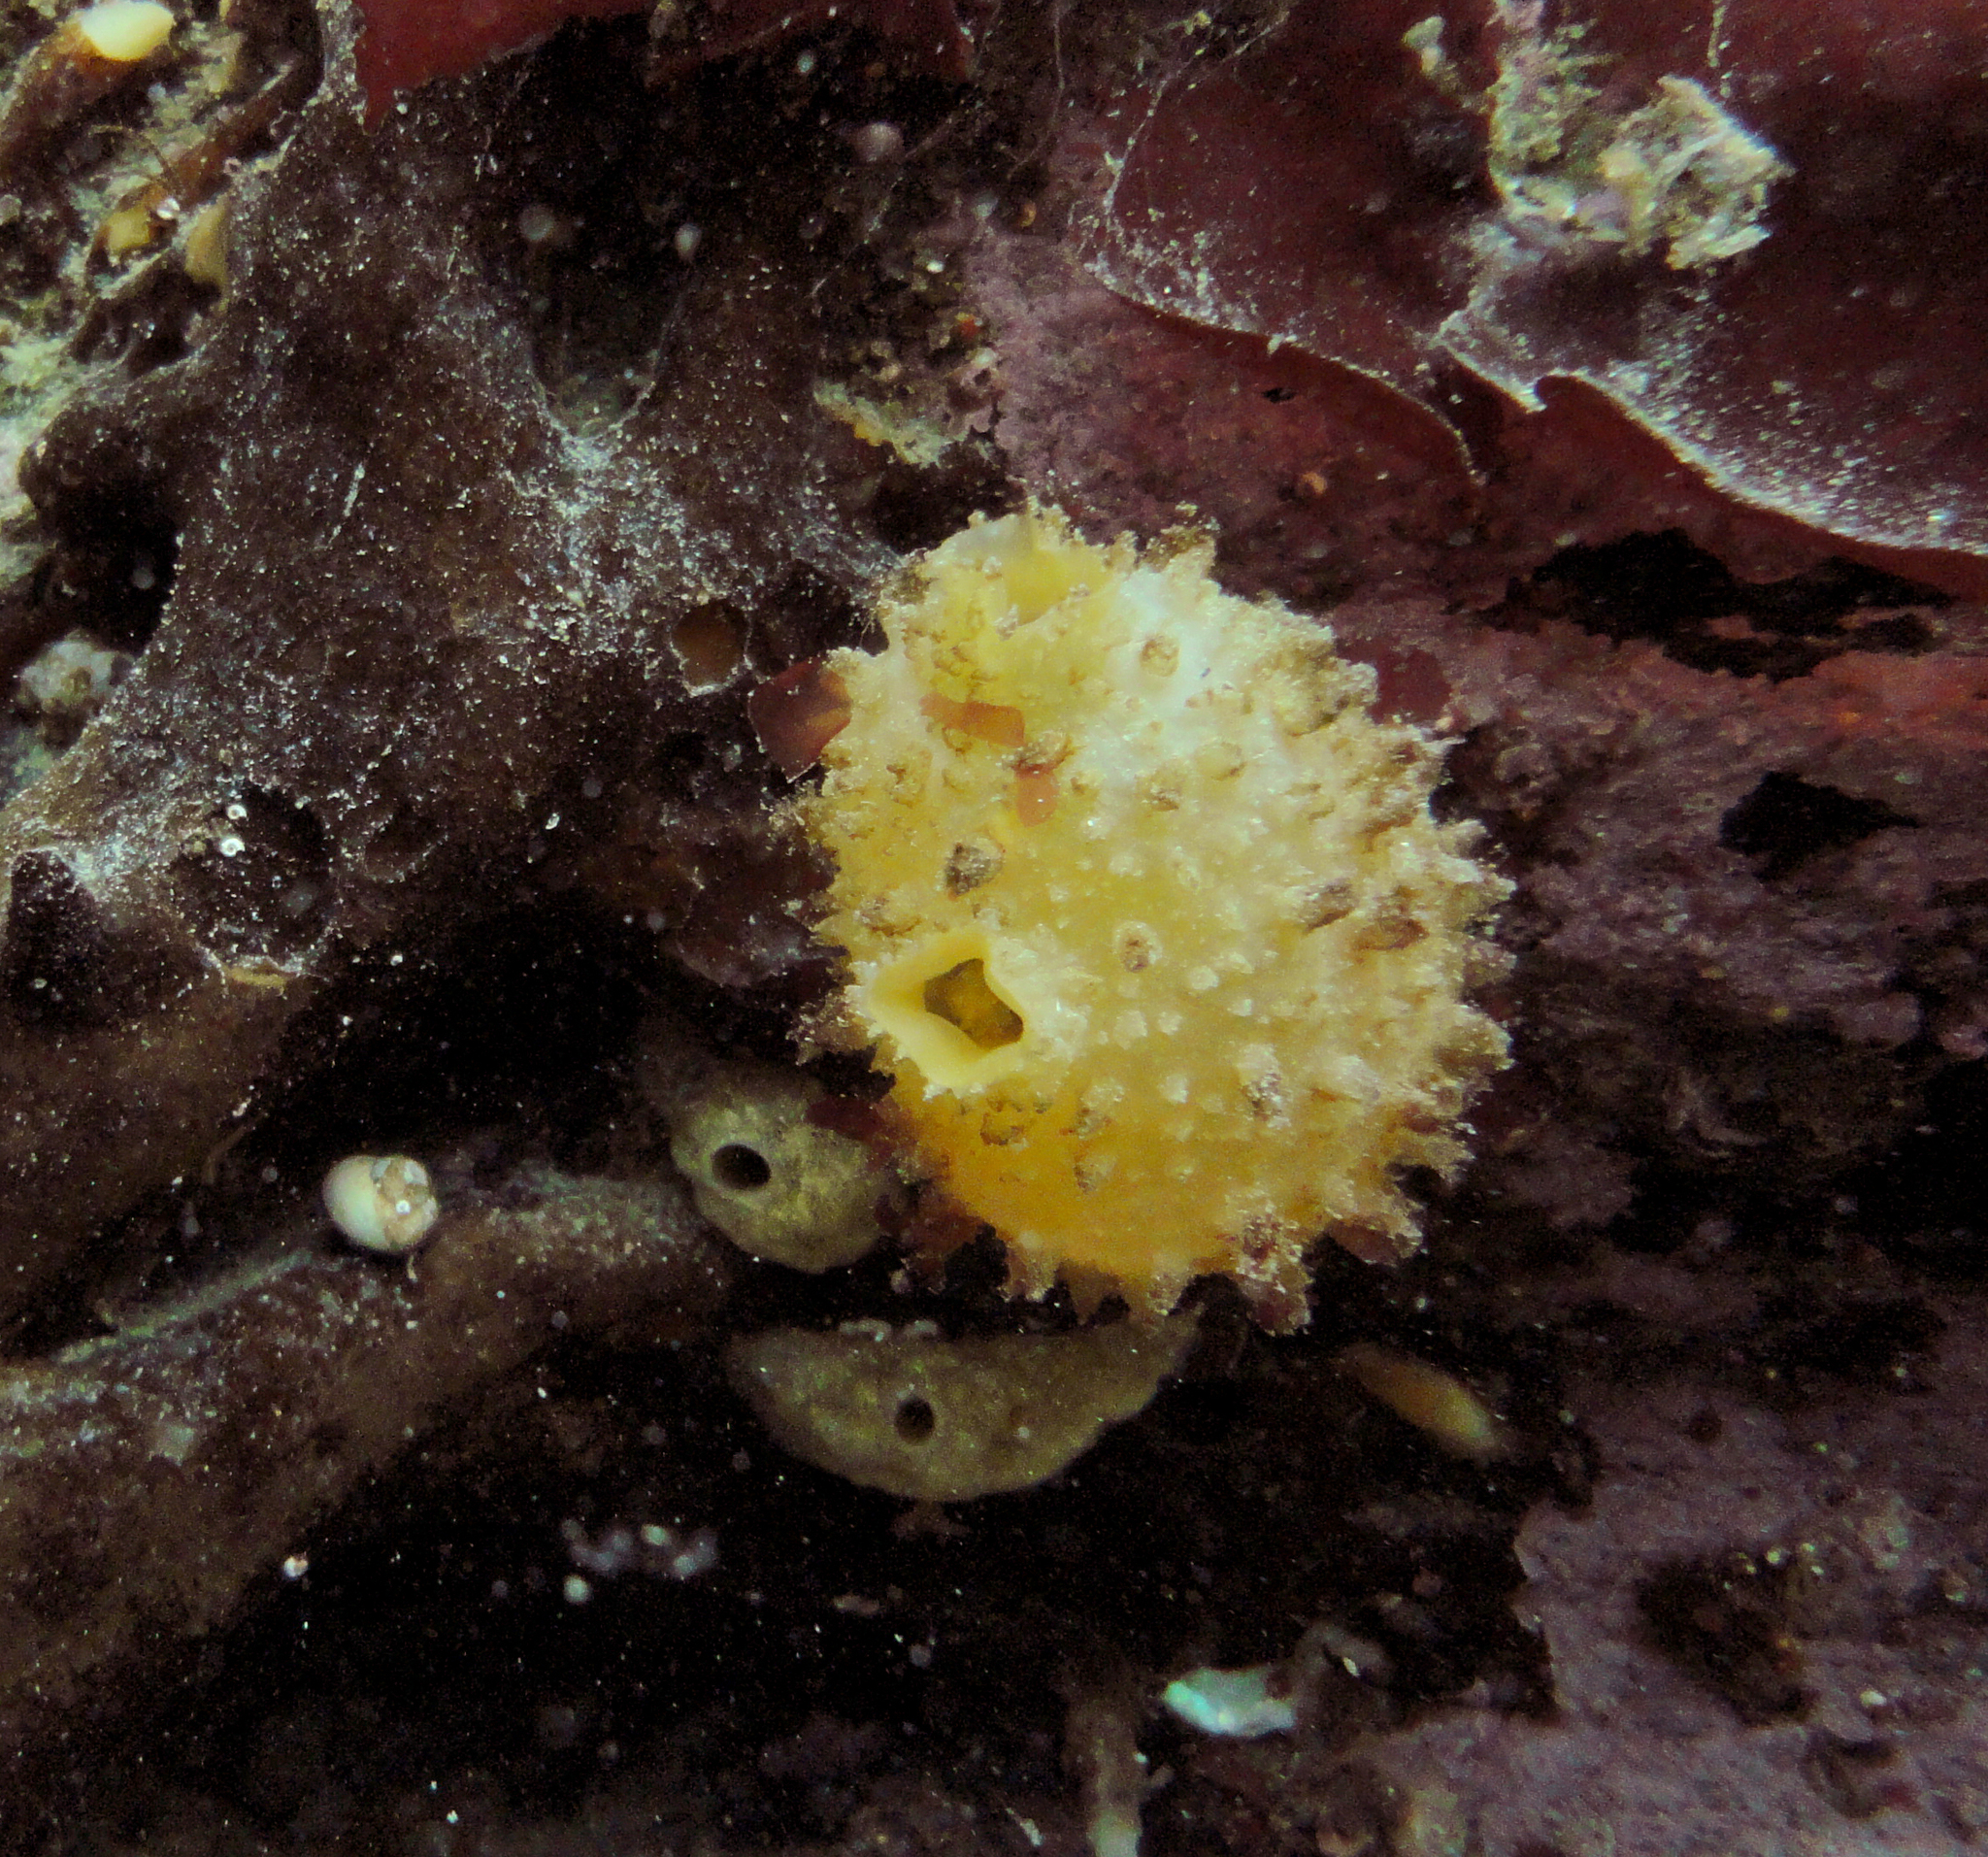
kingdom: Animalia
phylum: Chordata
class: Ascidiacea
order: Stolidobranchia
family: Styelidae
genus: Cnemidocarpa
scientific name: Cnemidocarpa verrucosa
